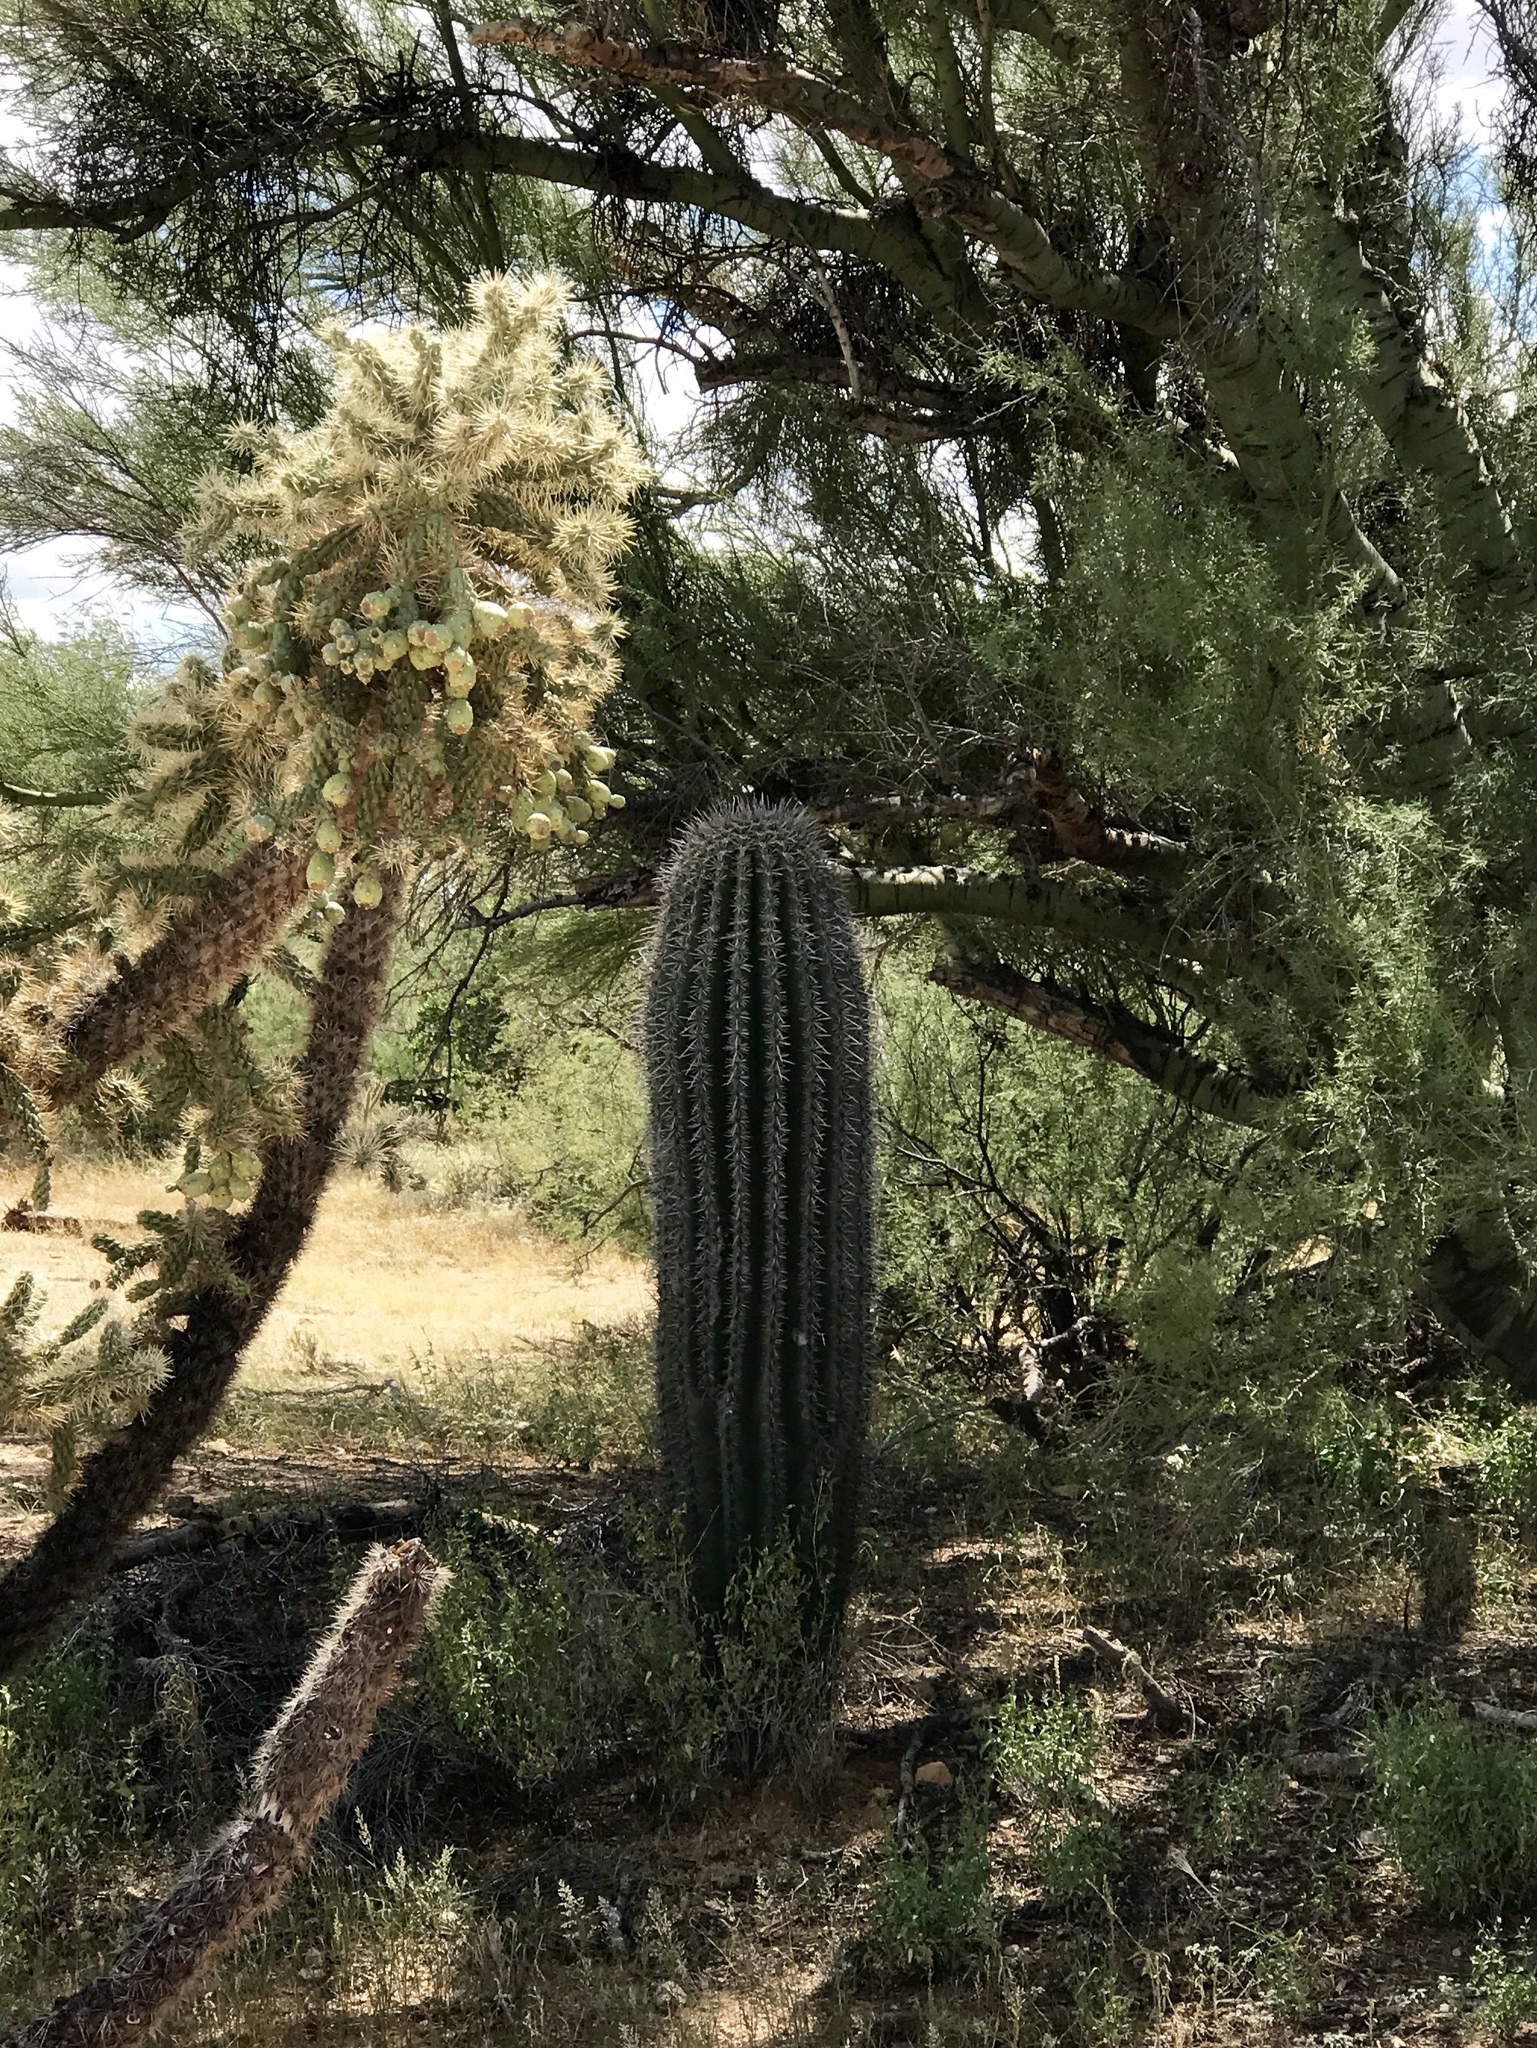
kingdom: Plantae
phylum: Tracheophyta
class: Magnoliopsida
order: Caryophyllales
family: Cactaceae
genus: Carnegiea
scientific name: Carnegiea gigantea
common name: Saguaro
